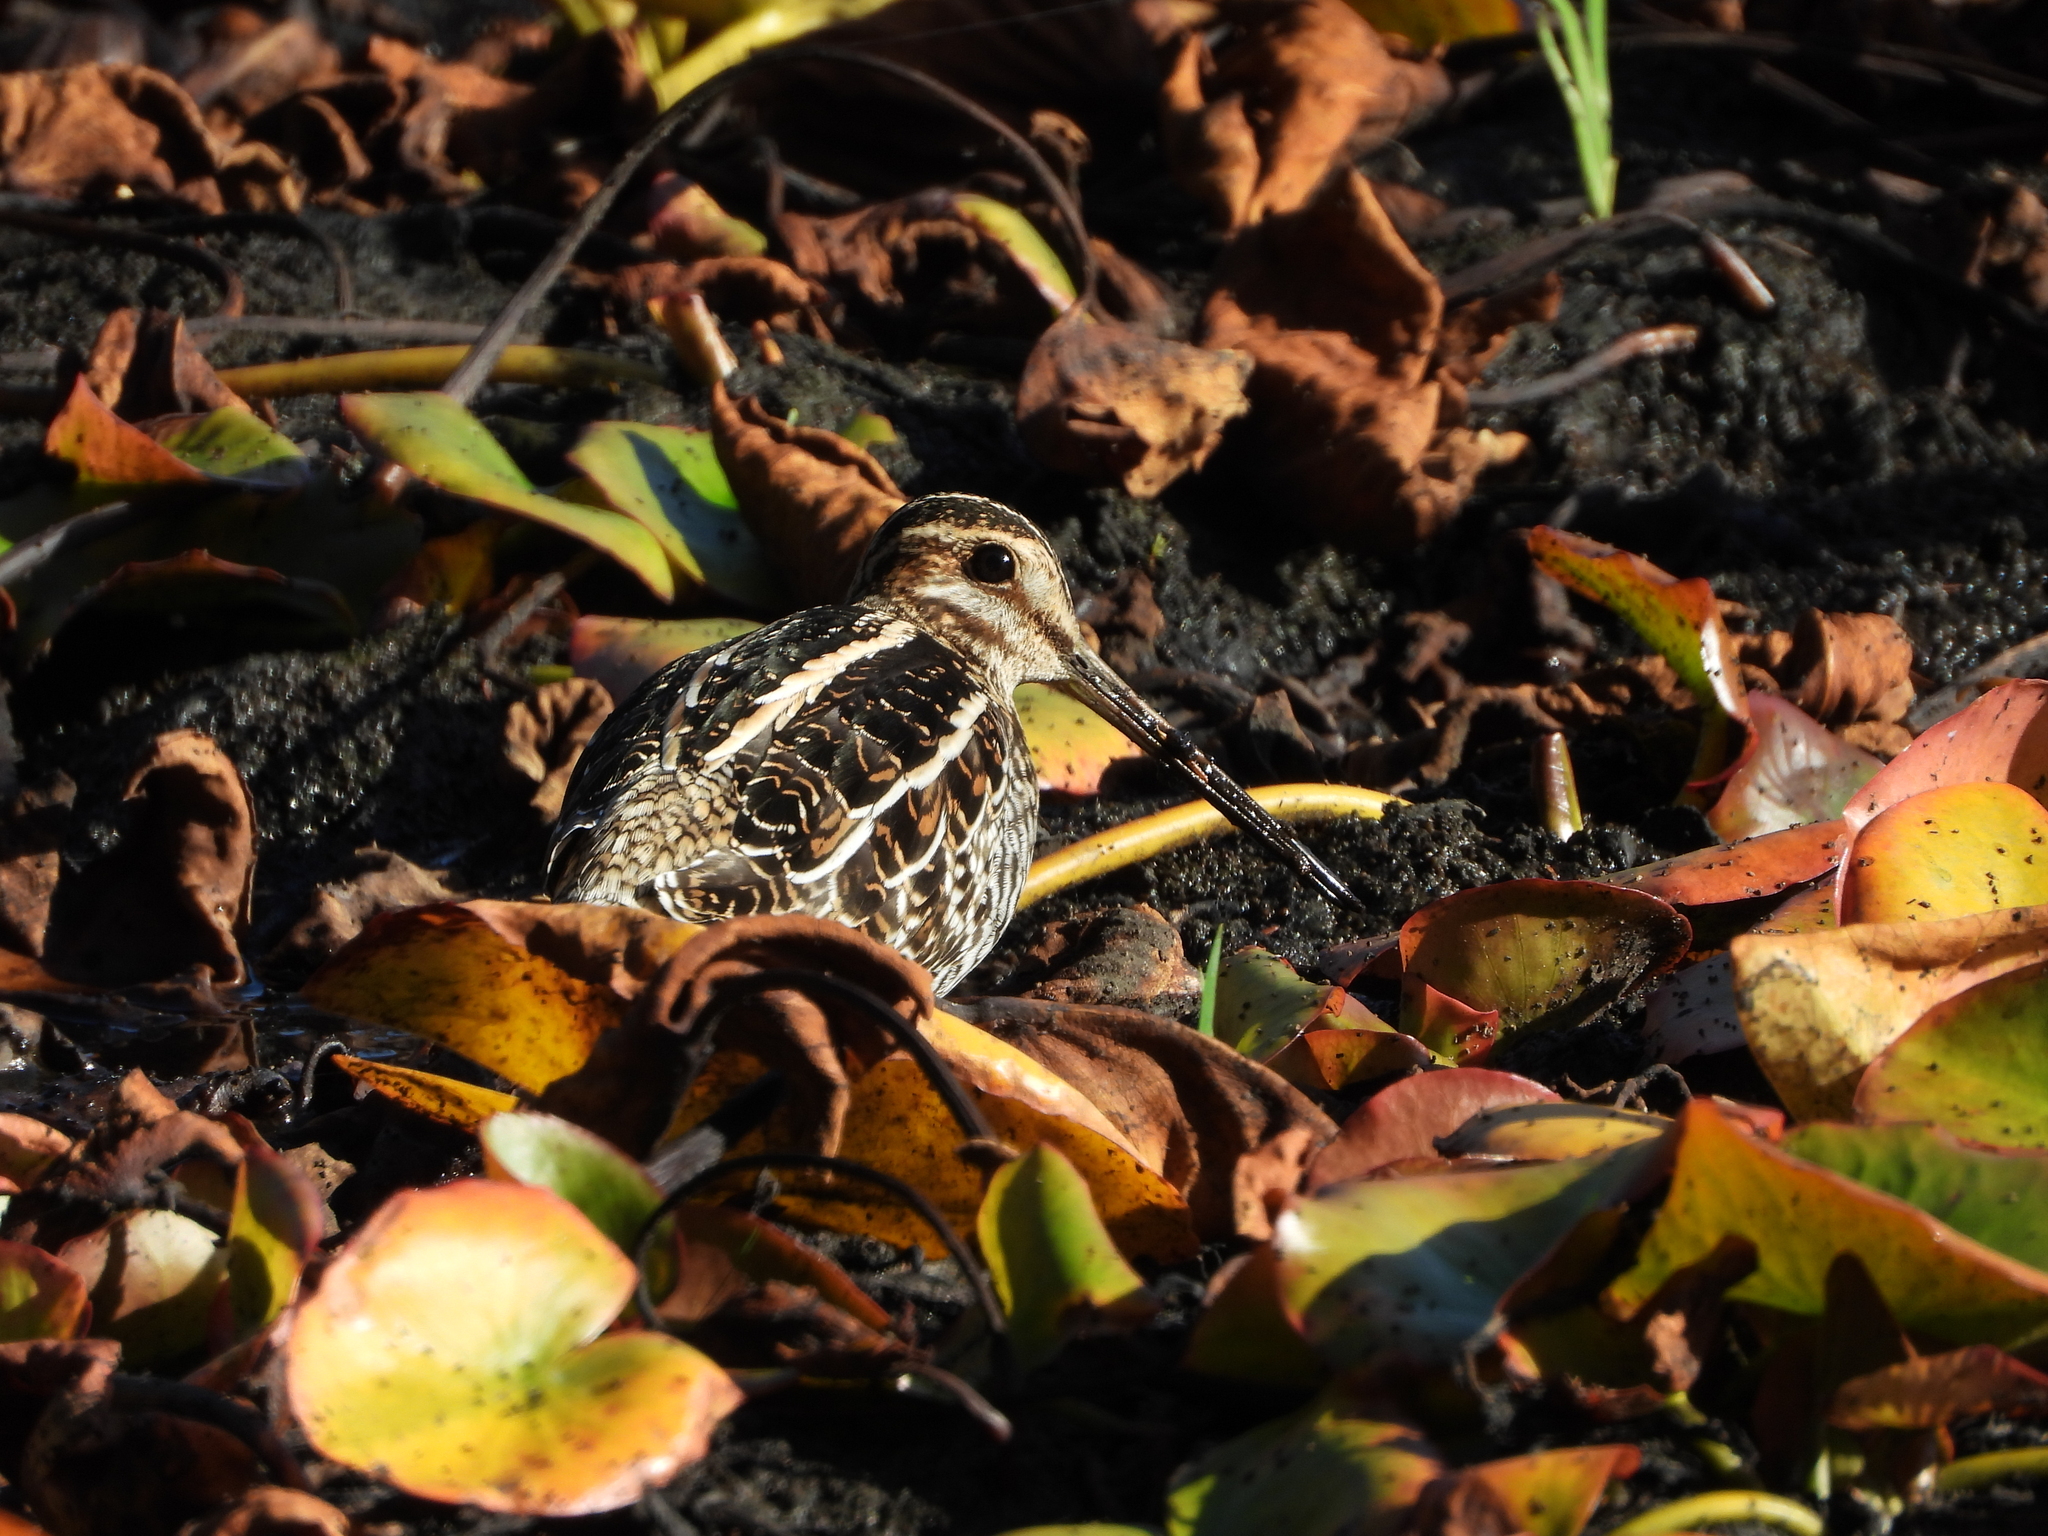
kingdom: Animalia
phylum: Chordata
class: Aves
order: Charadriiformes
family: Scolopacidae
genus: Gallinago
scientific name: Gallinago delicata
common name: Wilson's snipe
